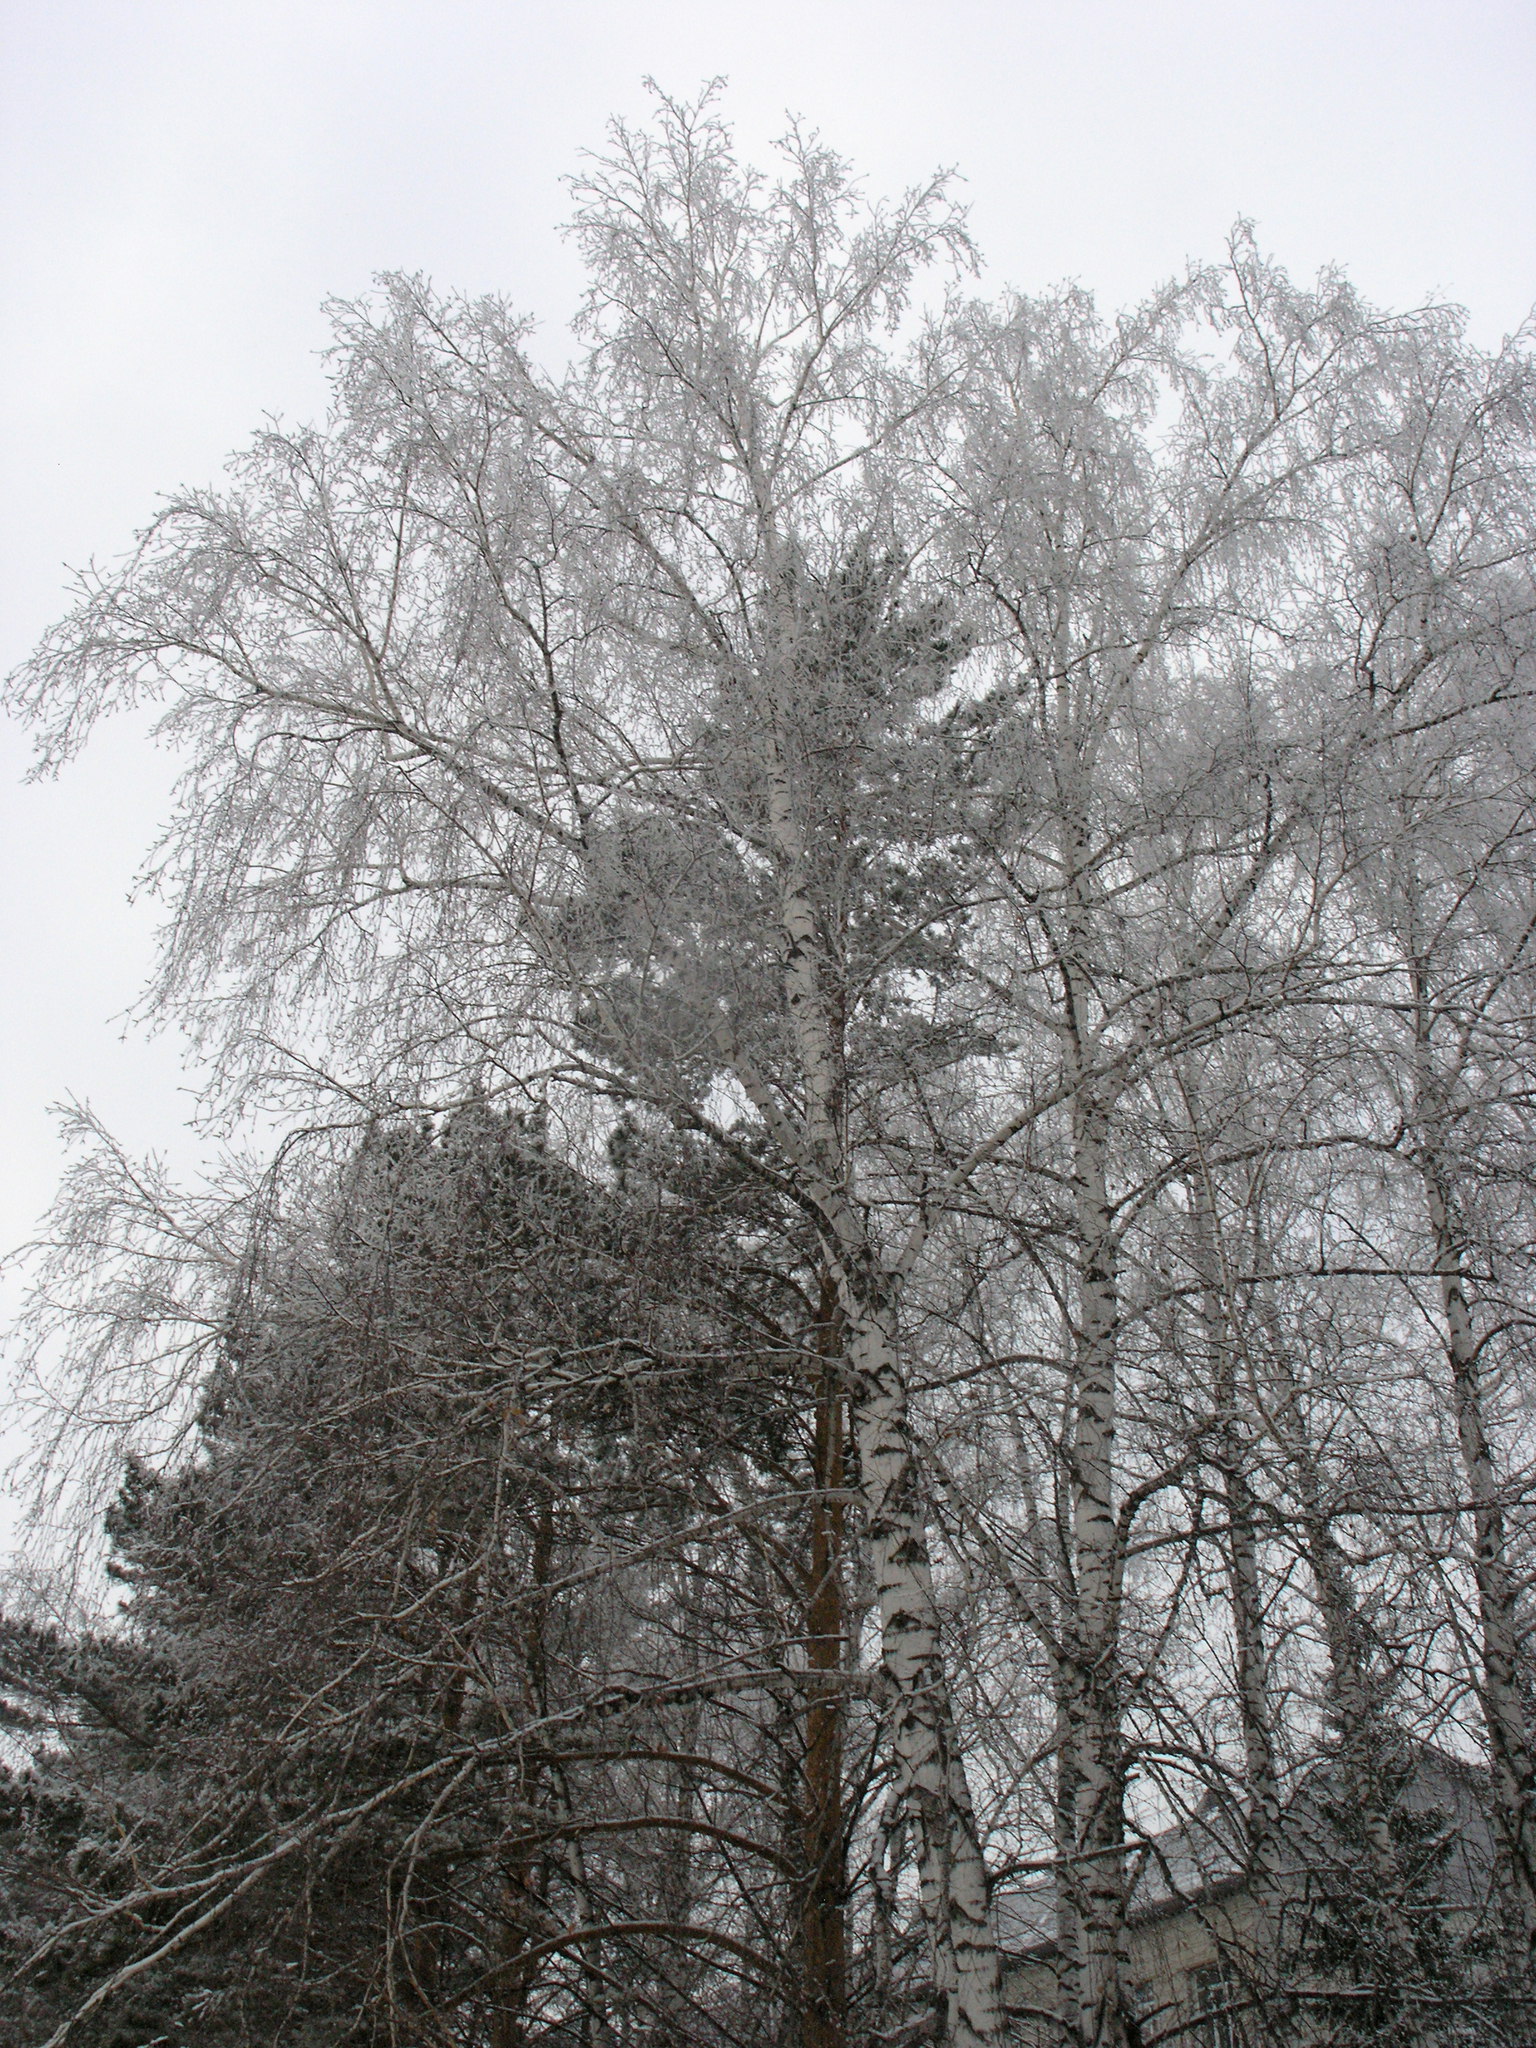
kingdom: Plantae
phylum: Tracheophyta
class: Magnoliopsida
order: Fagales
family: Betulaceae
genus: Betula
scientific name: Betula pendula
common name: Silver birch
